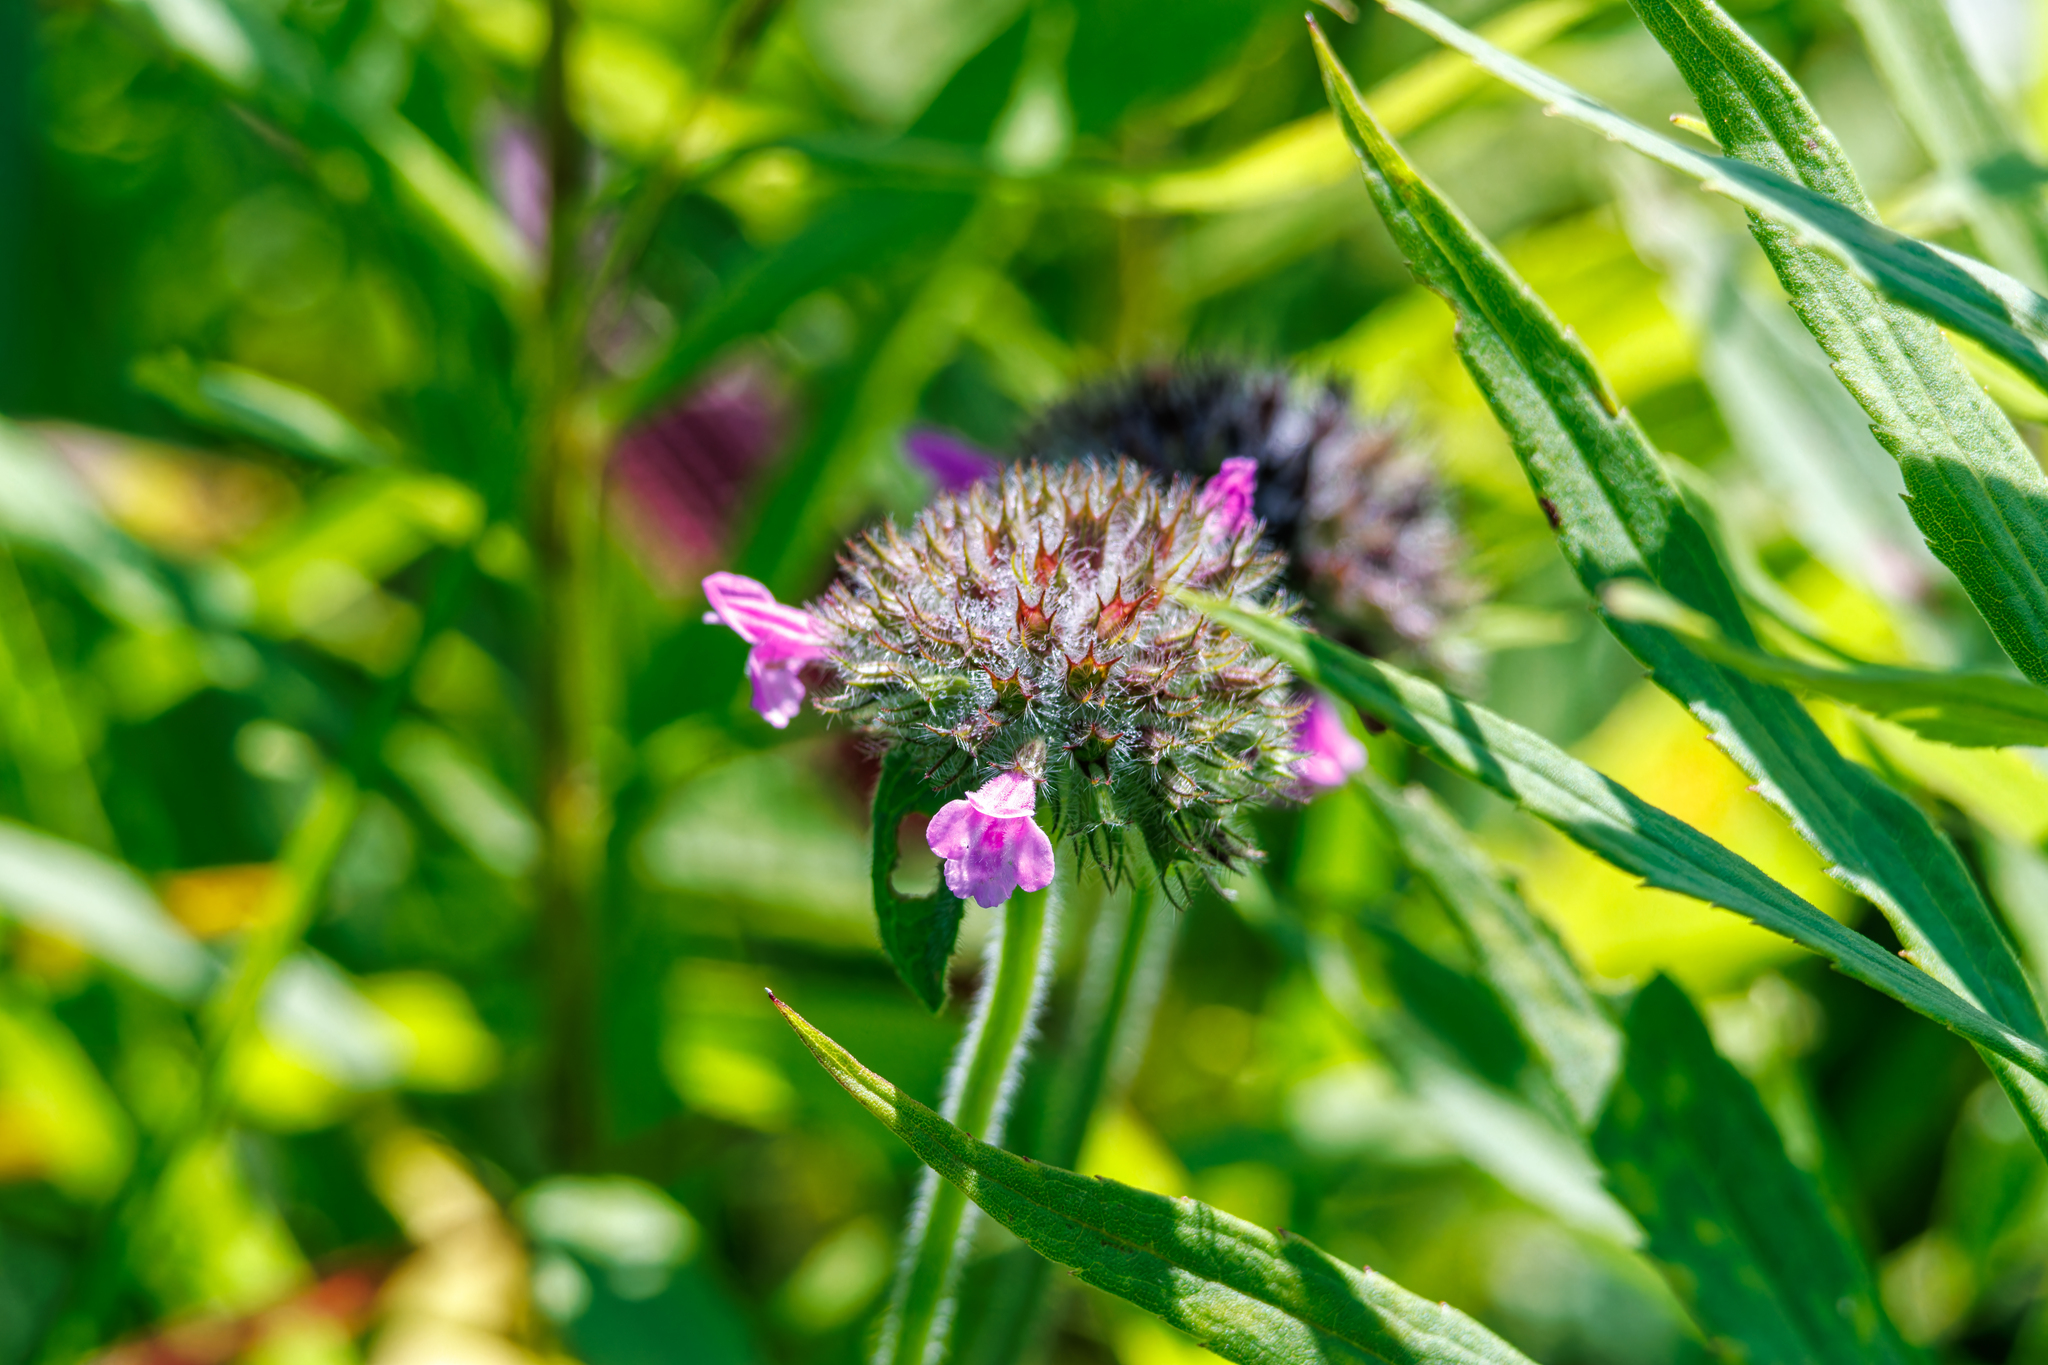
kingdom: Plantae
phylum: Tracheophyta
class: Magnoliopsida
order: Lamiales
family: Lamiaceae
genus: Clinopodium
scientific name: Clinopodium vulgare
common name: Wild basil
